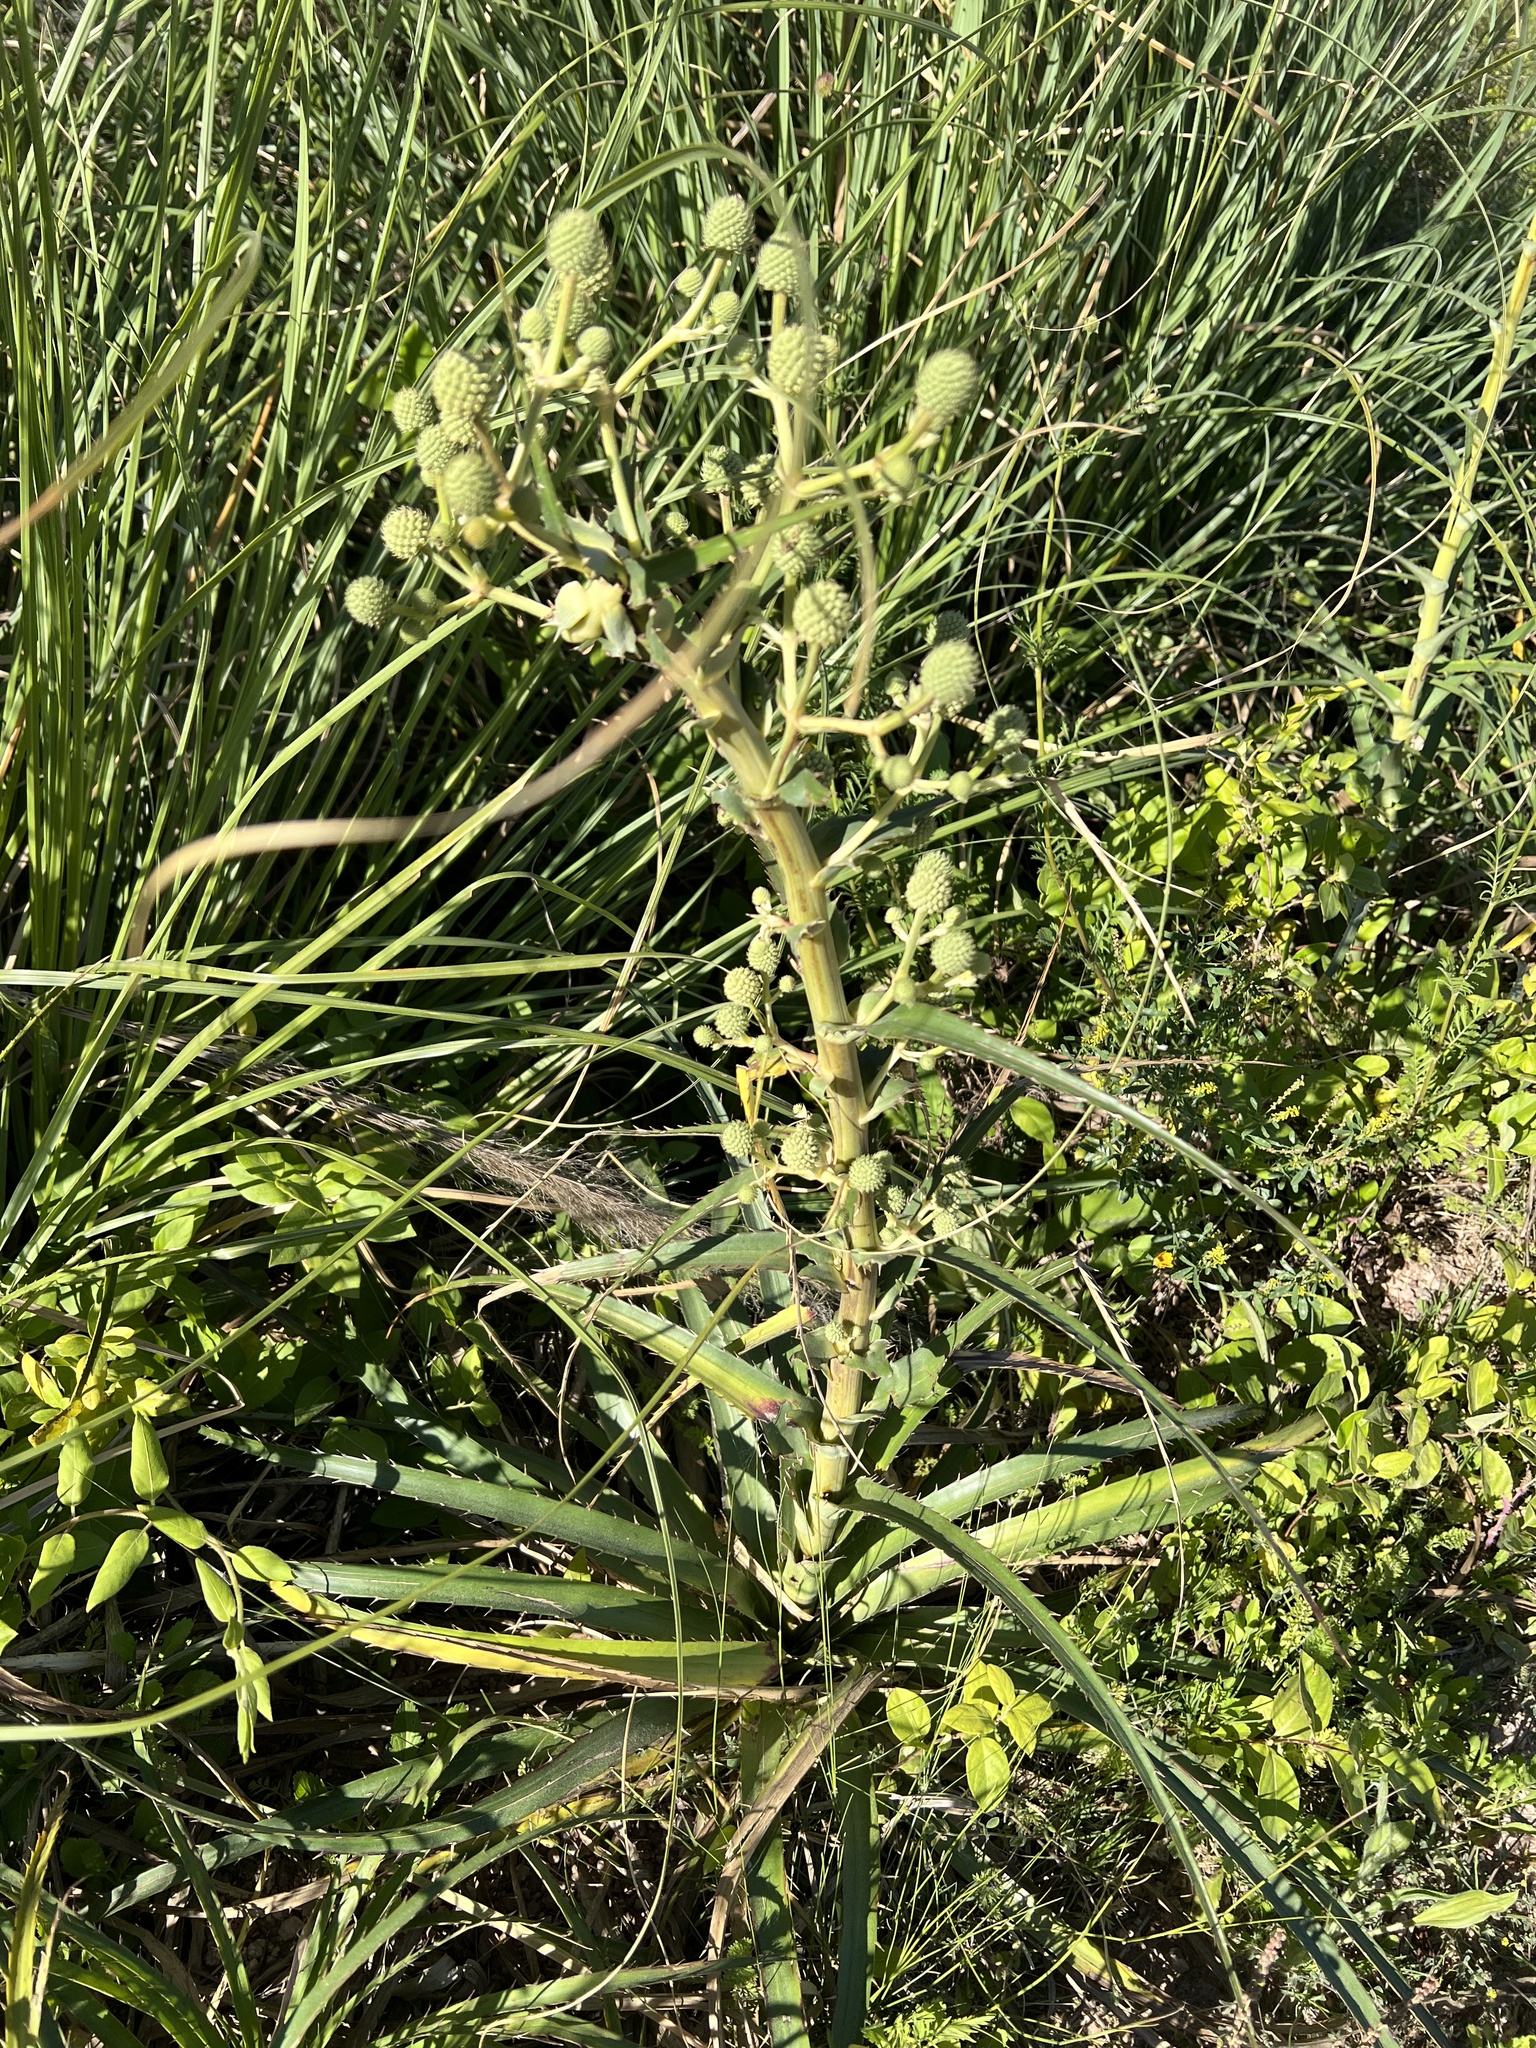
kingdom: Plantae
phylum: Tracheophyta
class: Magnoliopsida
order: Apiales
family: Apiaceae
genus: Eryngium
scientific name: Eryngium horridum
